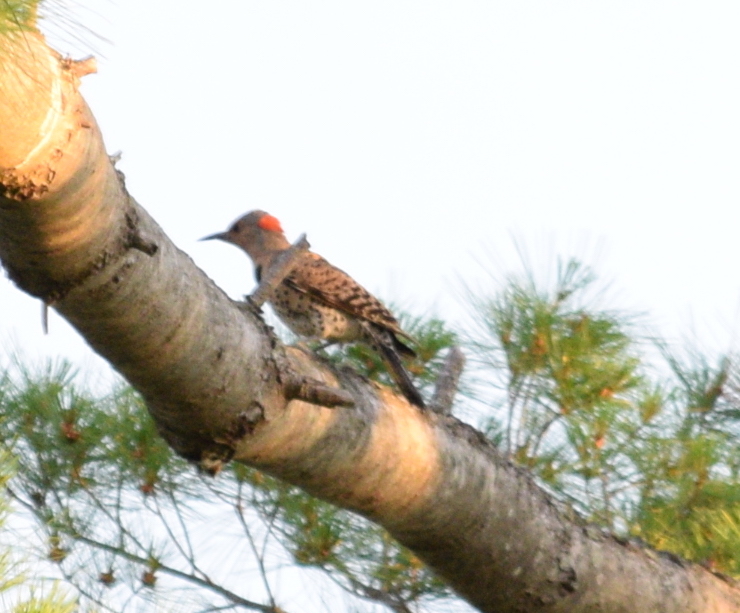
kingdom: Animalia
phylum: Chordata
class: Aves
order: Piciformes
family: Picidae
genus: Colaptes
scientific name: Colaptes auratus
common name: Northern flicker
